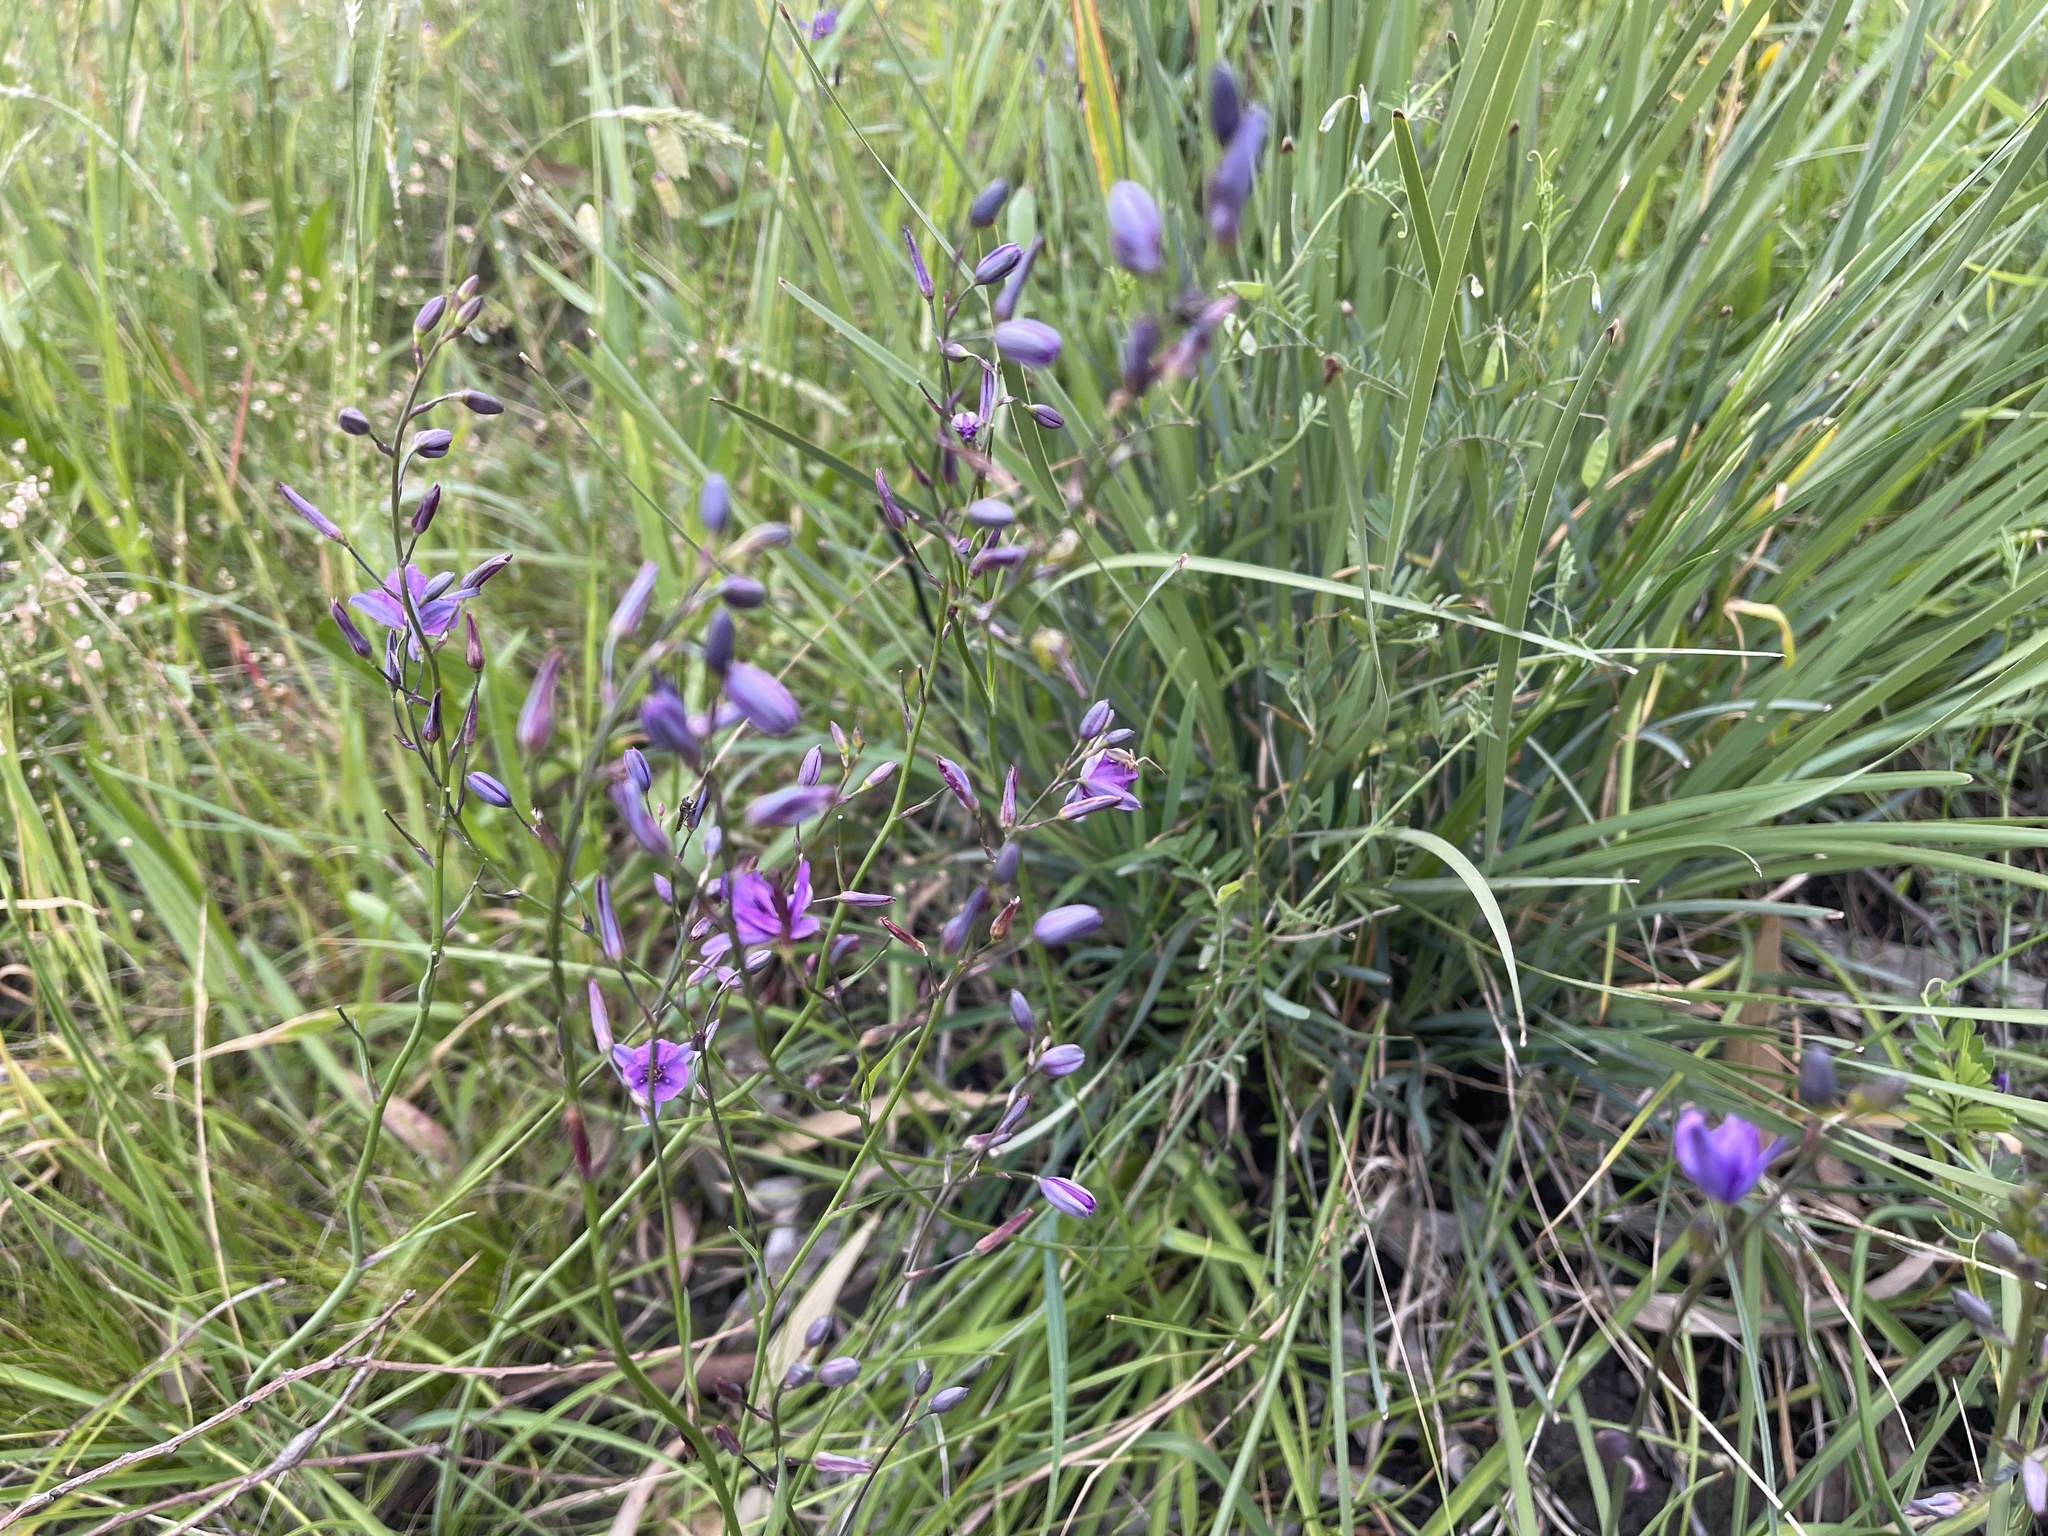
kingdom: Plantae
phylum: Tracheophyta
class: Liliopsida
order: Asparagales
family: Asparagaceae
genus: Arthropodium
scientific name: Arthropodium strictum
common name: Chocolate-lily
